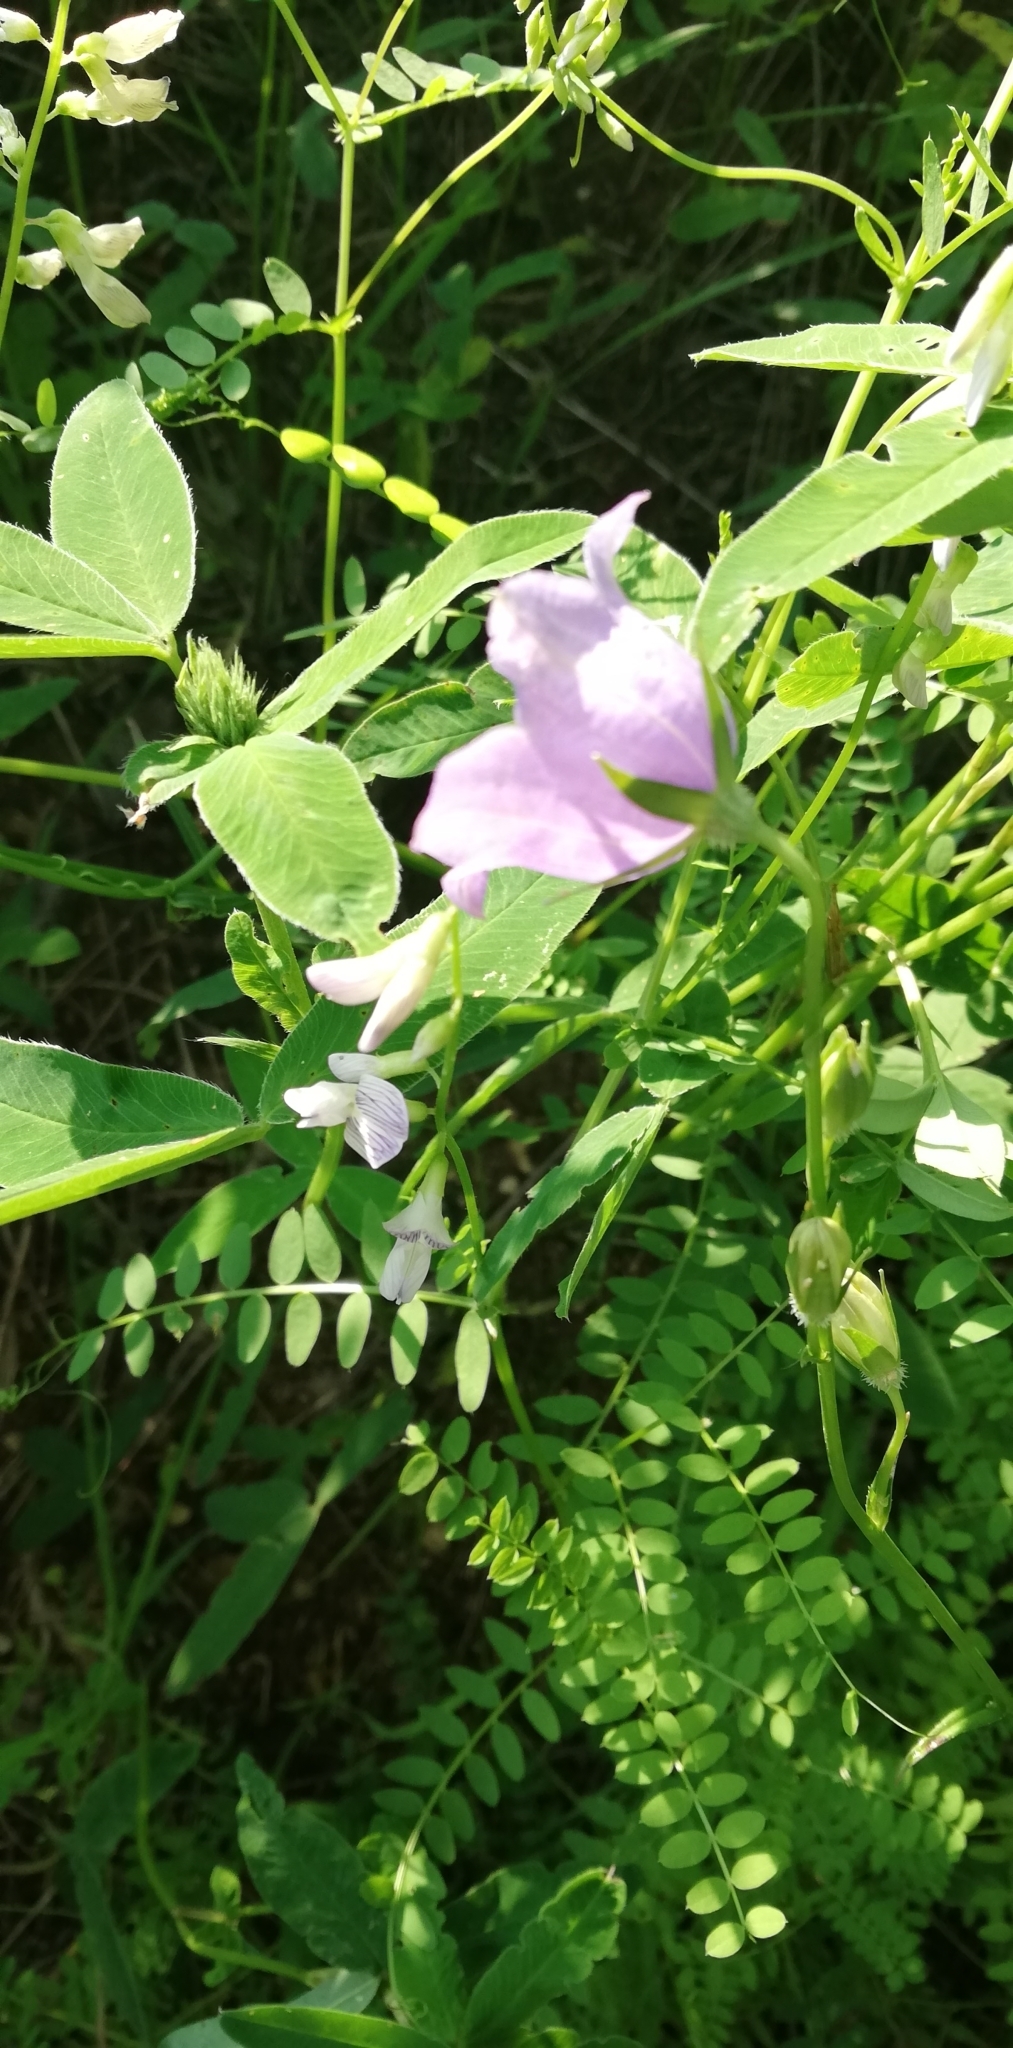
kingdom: Plantae
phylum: Tracheophyta
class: Magnoliopsida
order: Asterales
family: Campanulaceae
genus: Campanula
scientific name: Campanula persicifolia
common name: Peach-leaved bellflower
